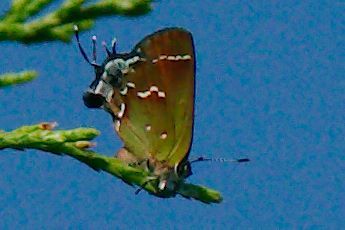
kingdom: Animalia
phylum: Arthropoda
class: Insecta
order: Lepidoptera
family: Lycaenidae
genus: Mitoura
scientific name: Mitoura gryneus
